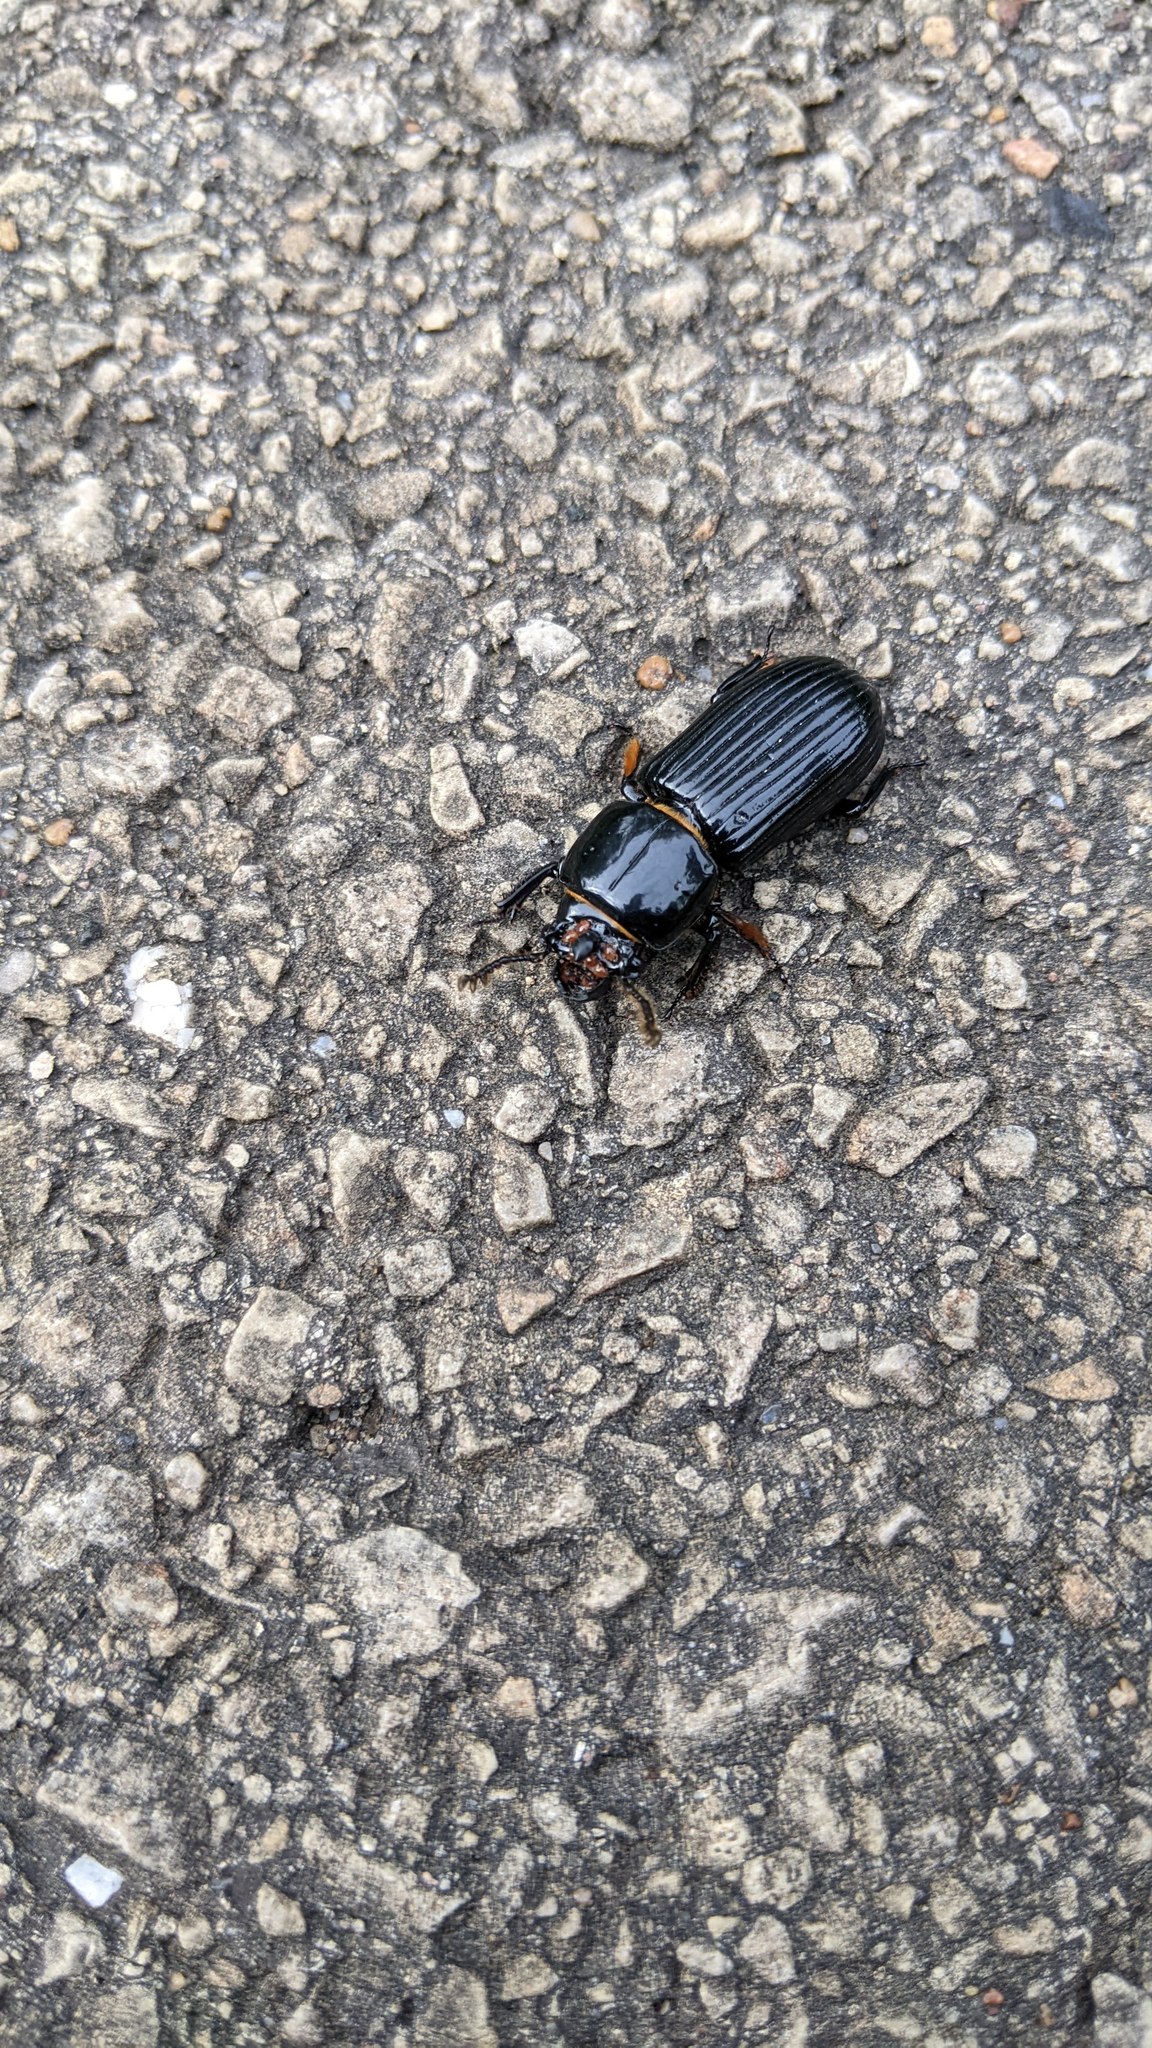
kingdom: Animalia
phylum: Arthropoda
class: Insecta
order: Coleoptera
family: Passalidae
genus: Odontotaenius
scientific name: Odontotaenius disjunctus
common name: Patent leather beetle
